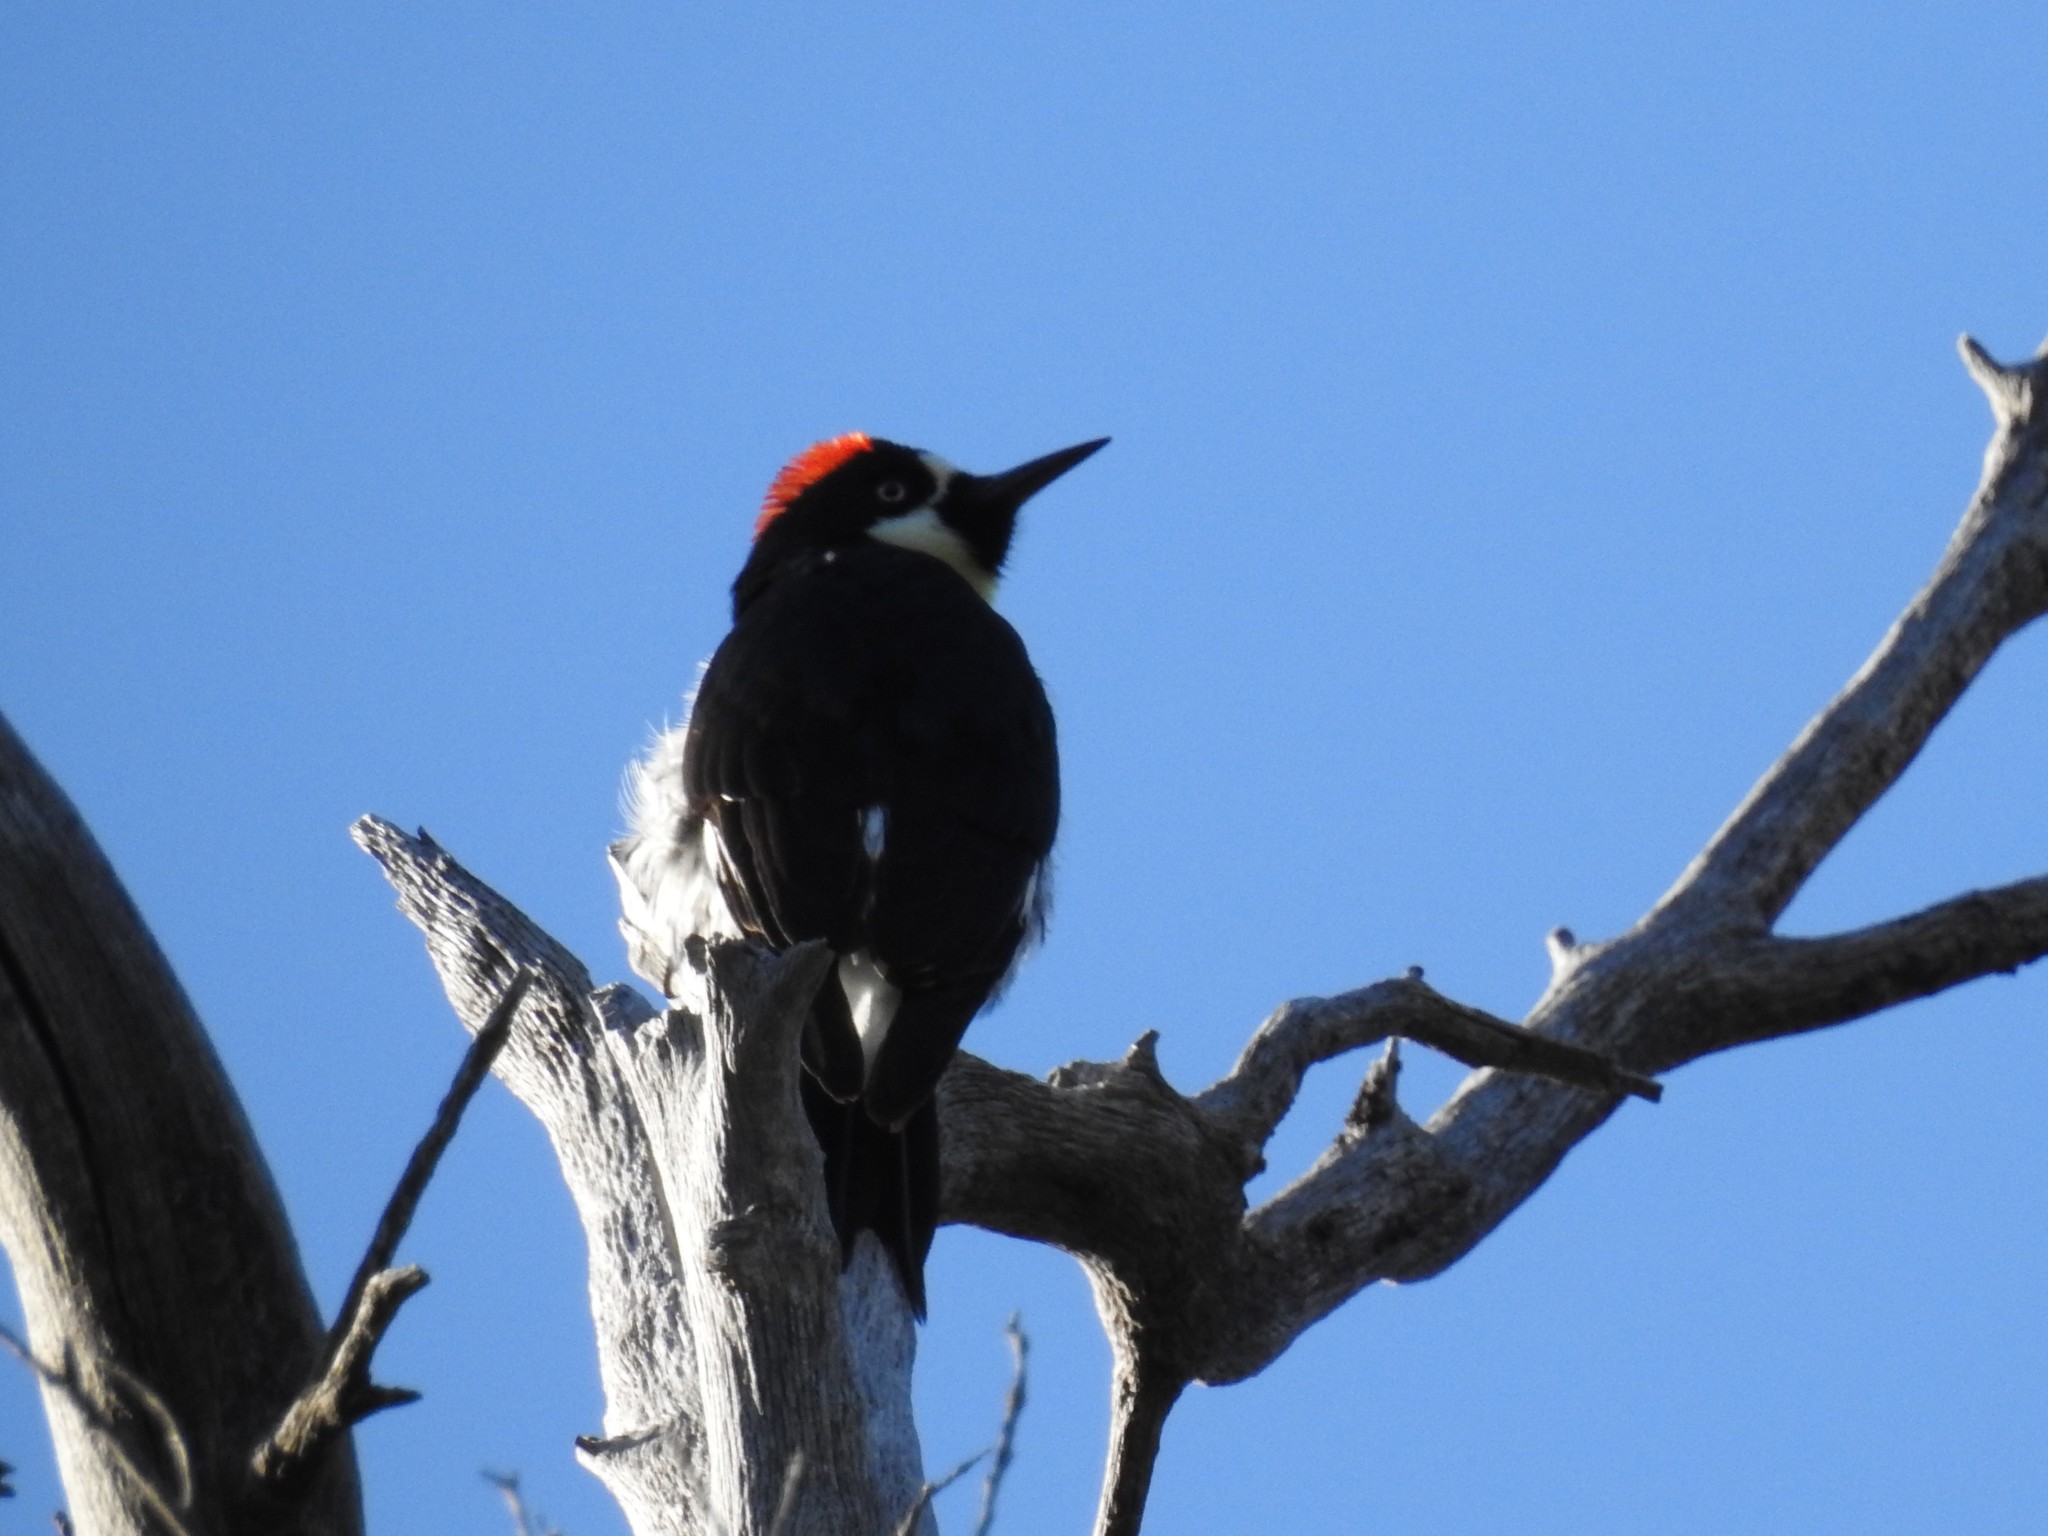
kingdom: Animalia
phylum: Chordata
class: Aves
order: Piciformes
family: Picidae
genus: Melanerpes
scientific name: Melanerpes formicivorus
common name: Acorn woodpecker
